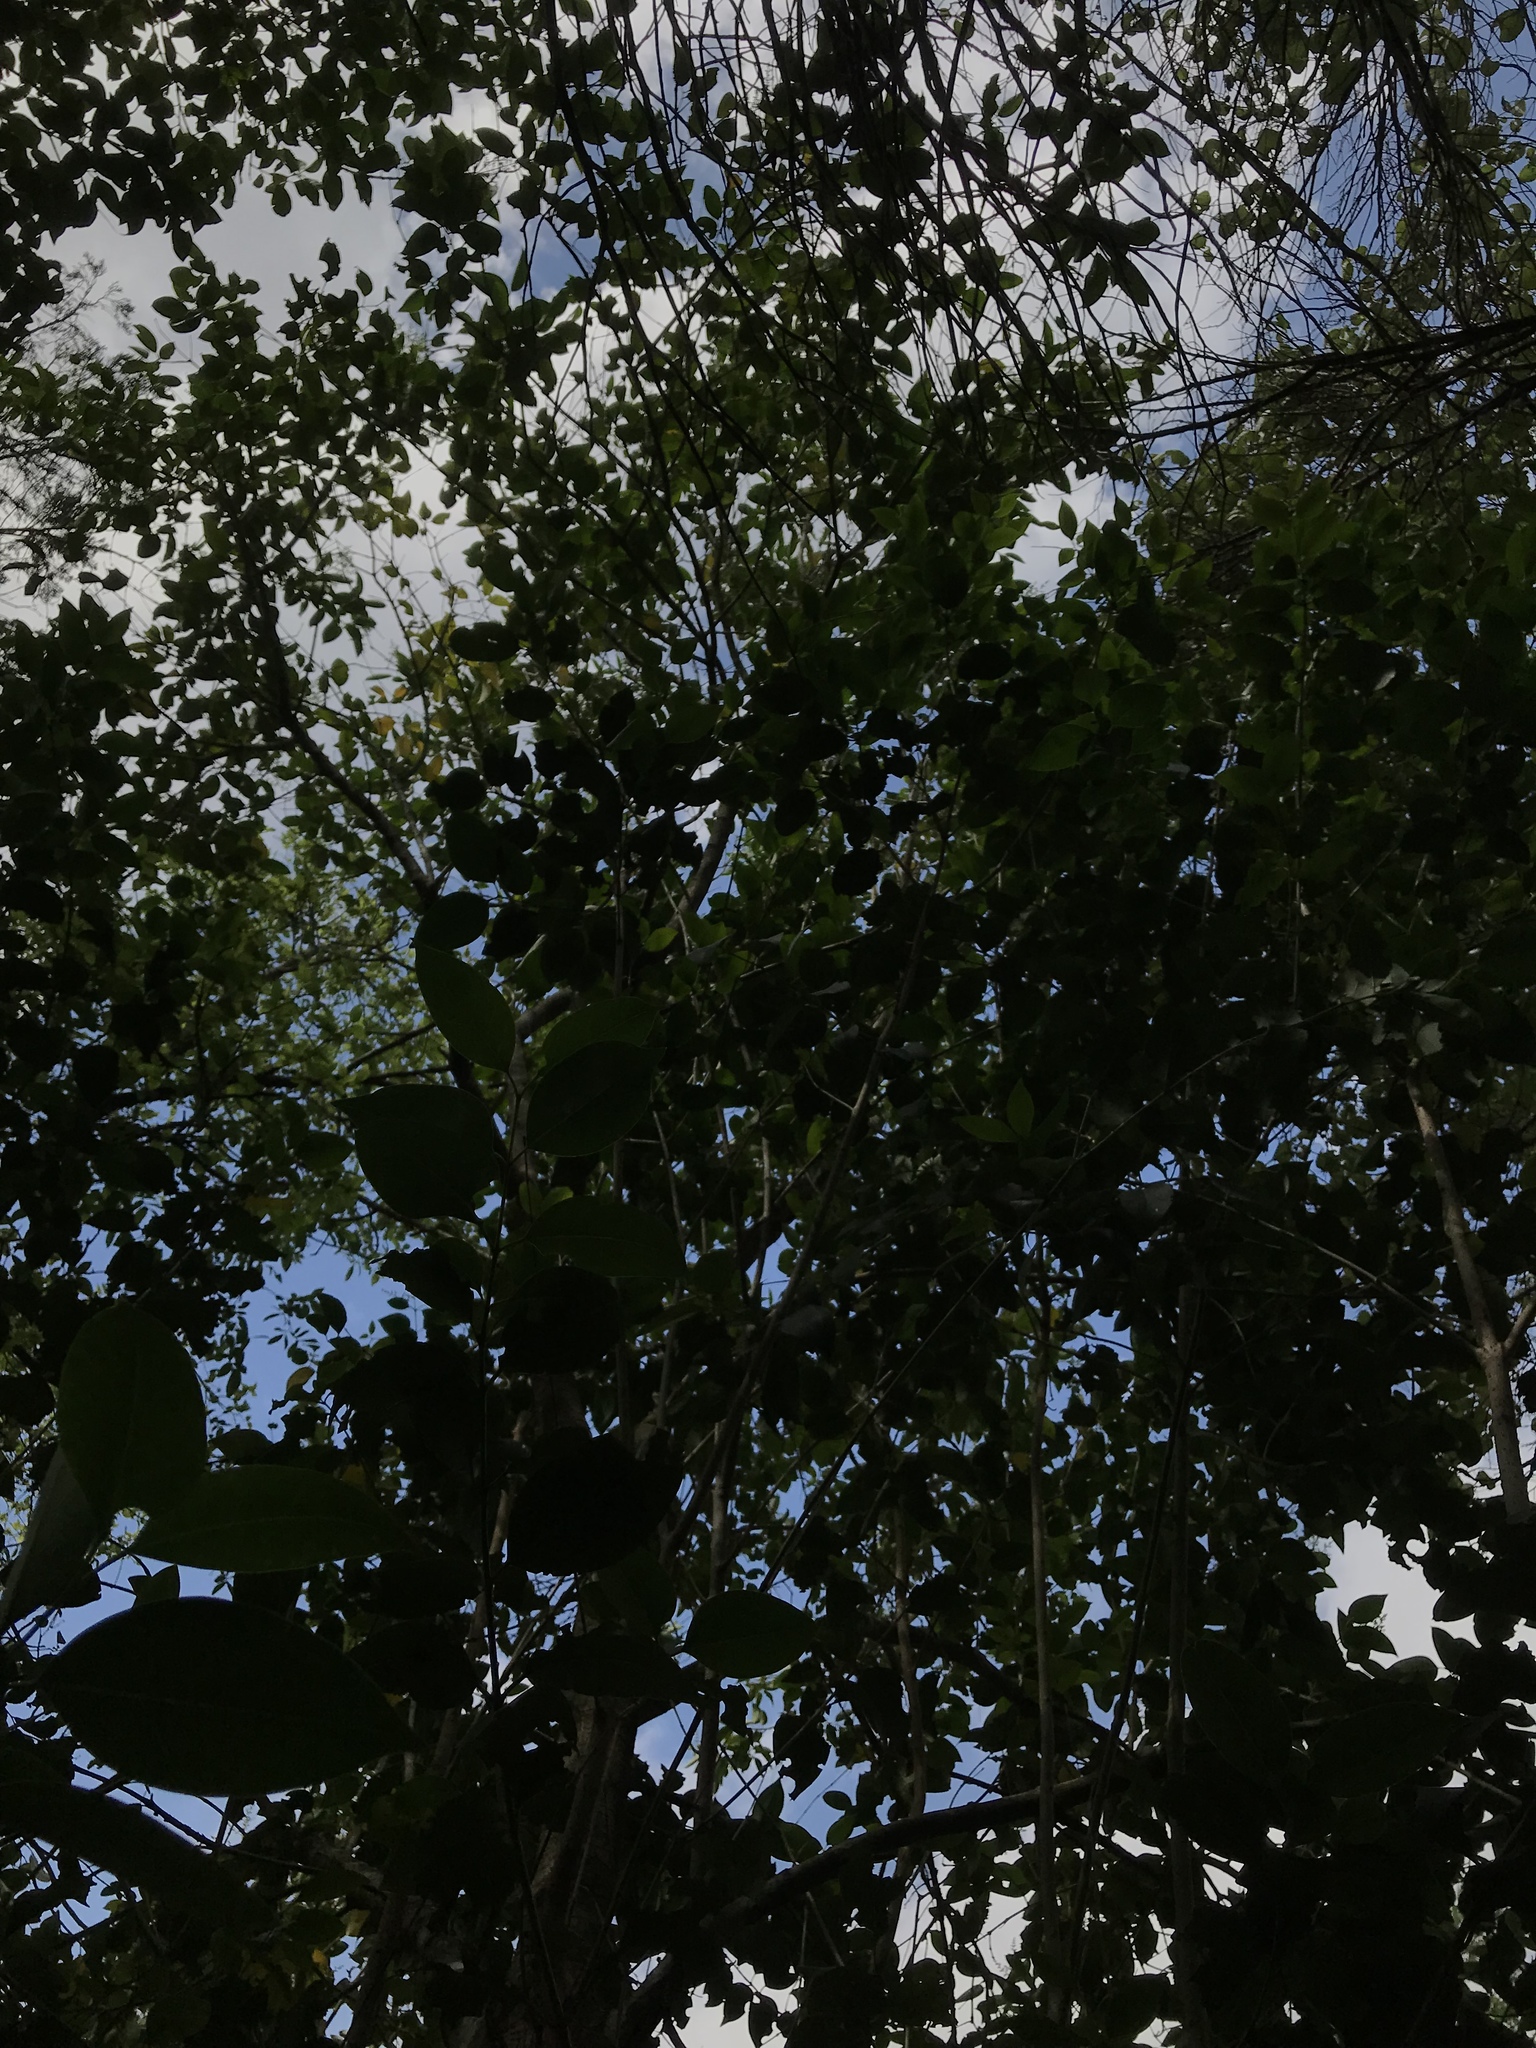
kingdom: Plantae
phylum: Tracheophyta
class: Magnoliopsida
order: Lamiales
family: Oleaceae
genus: Ligustrum
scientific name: Ligustrum lucidum
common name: Glossy privet
